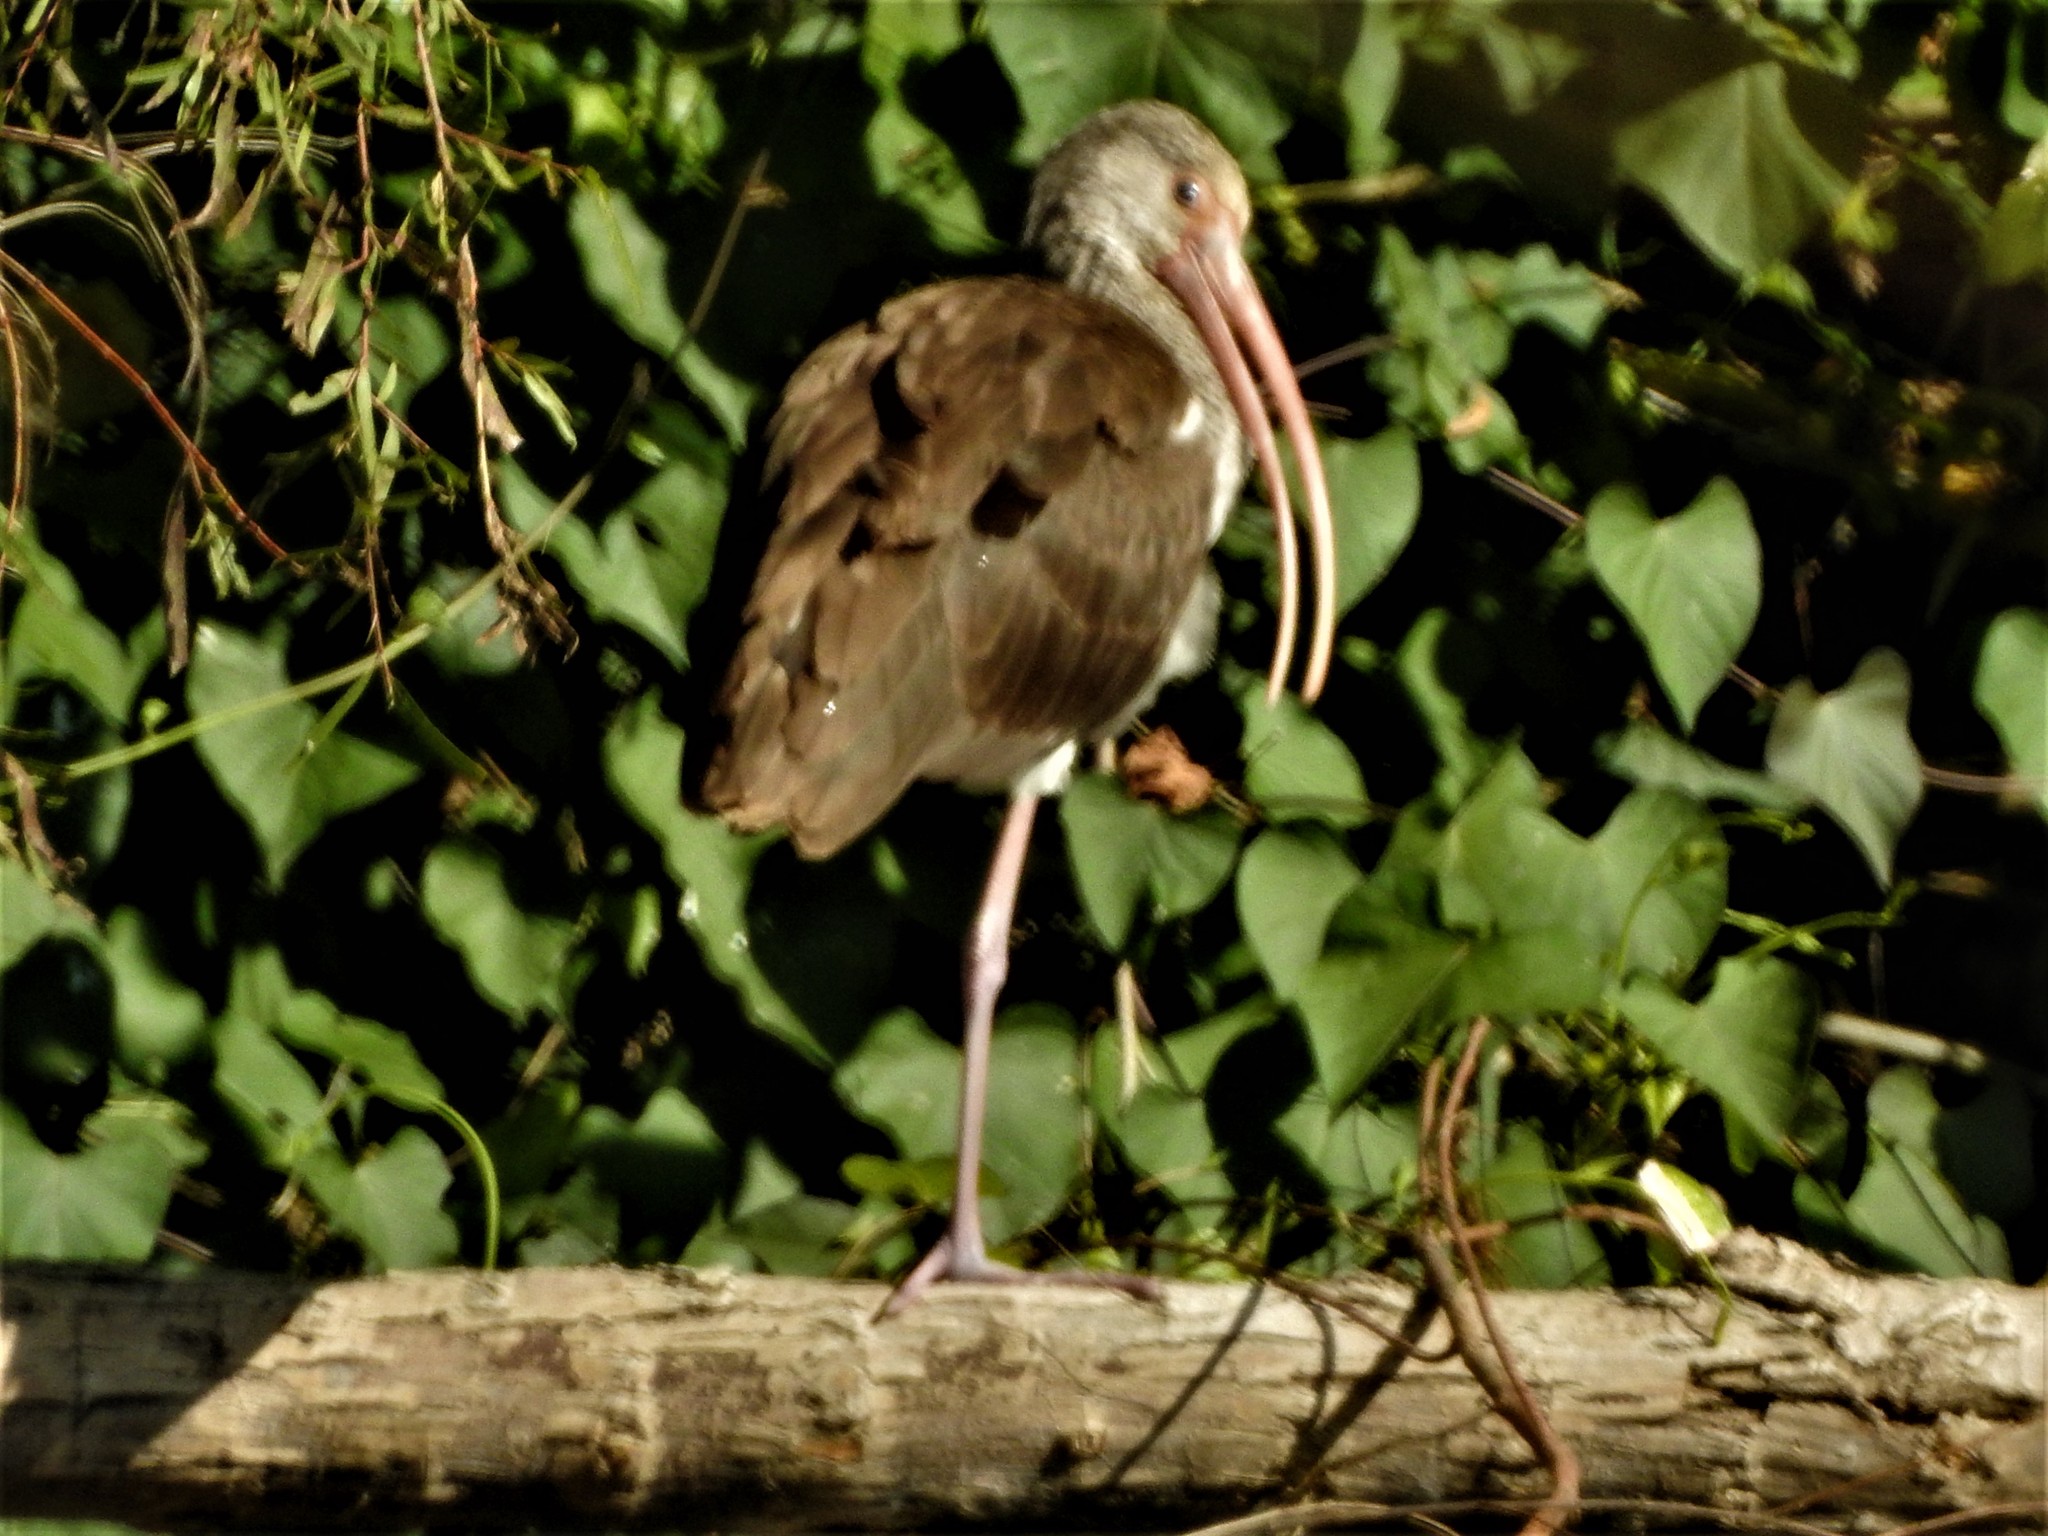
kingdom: Animalia
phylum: Chordata
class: Aves
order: Pelecaniformes
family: Threskiornithidae
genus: Eudocimus
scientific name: Eudocimus albus
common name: White ibis
